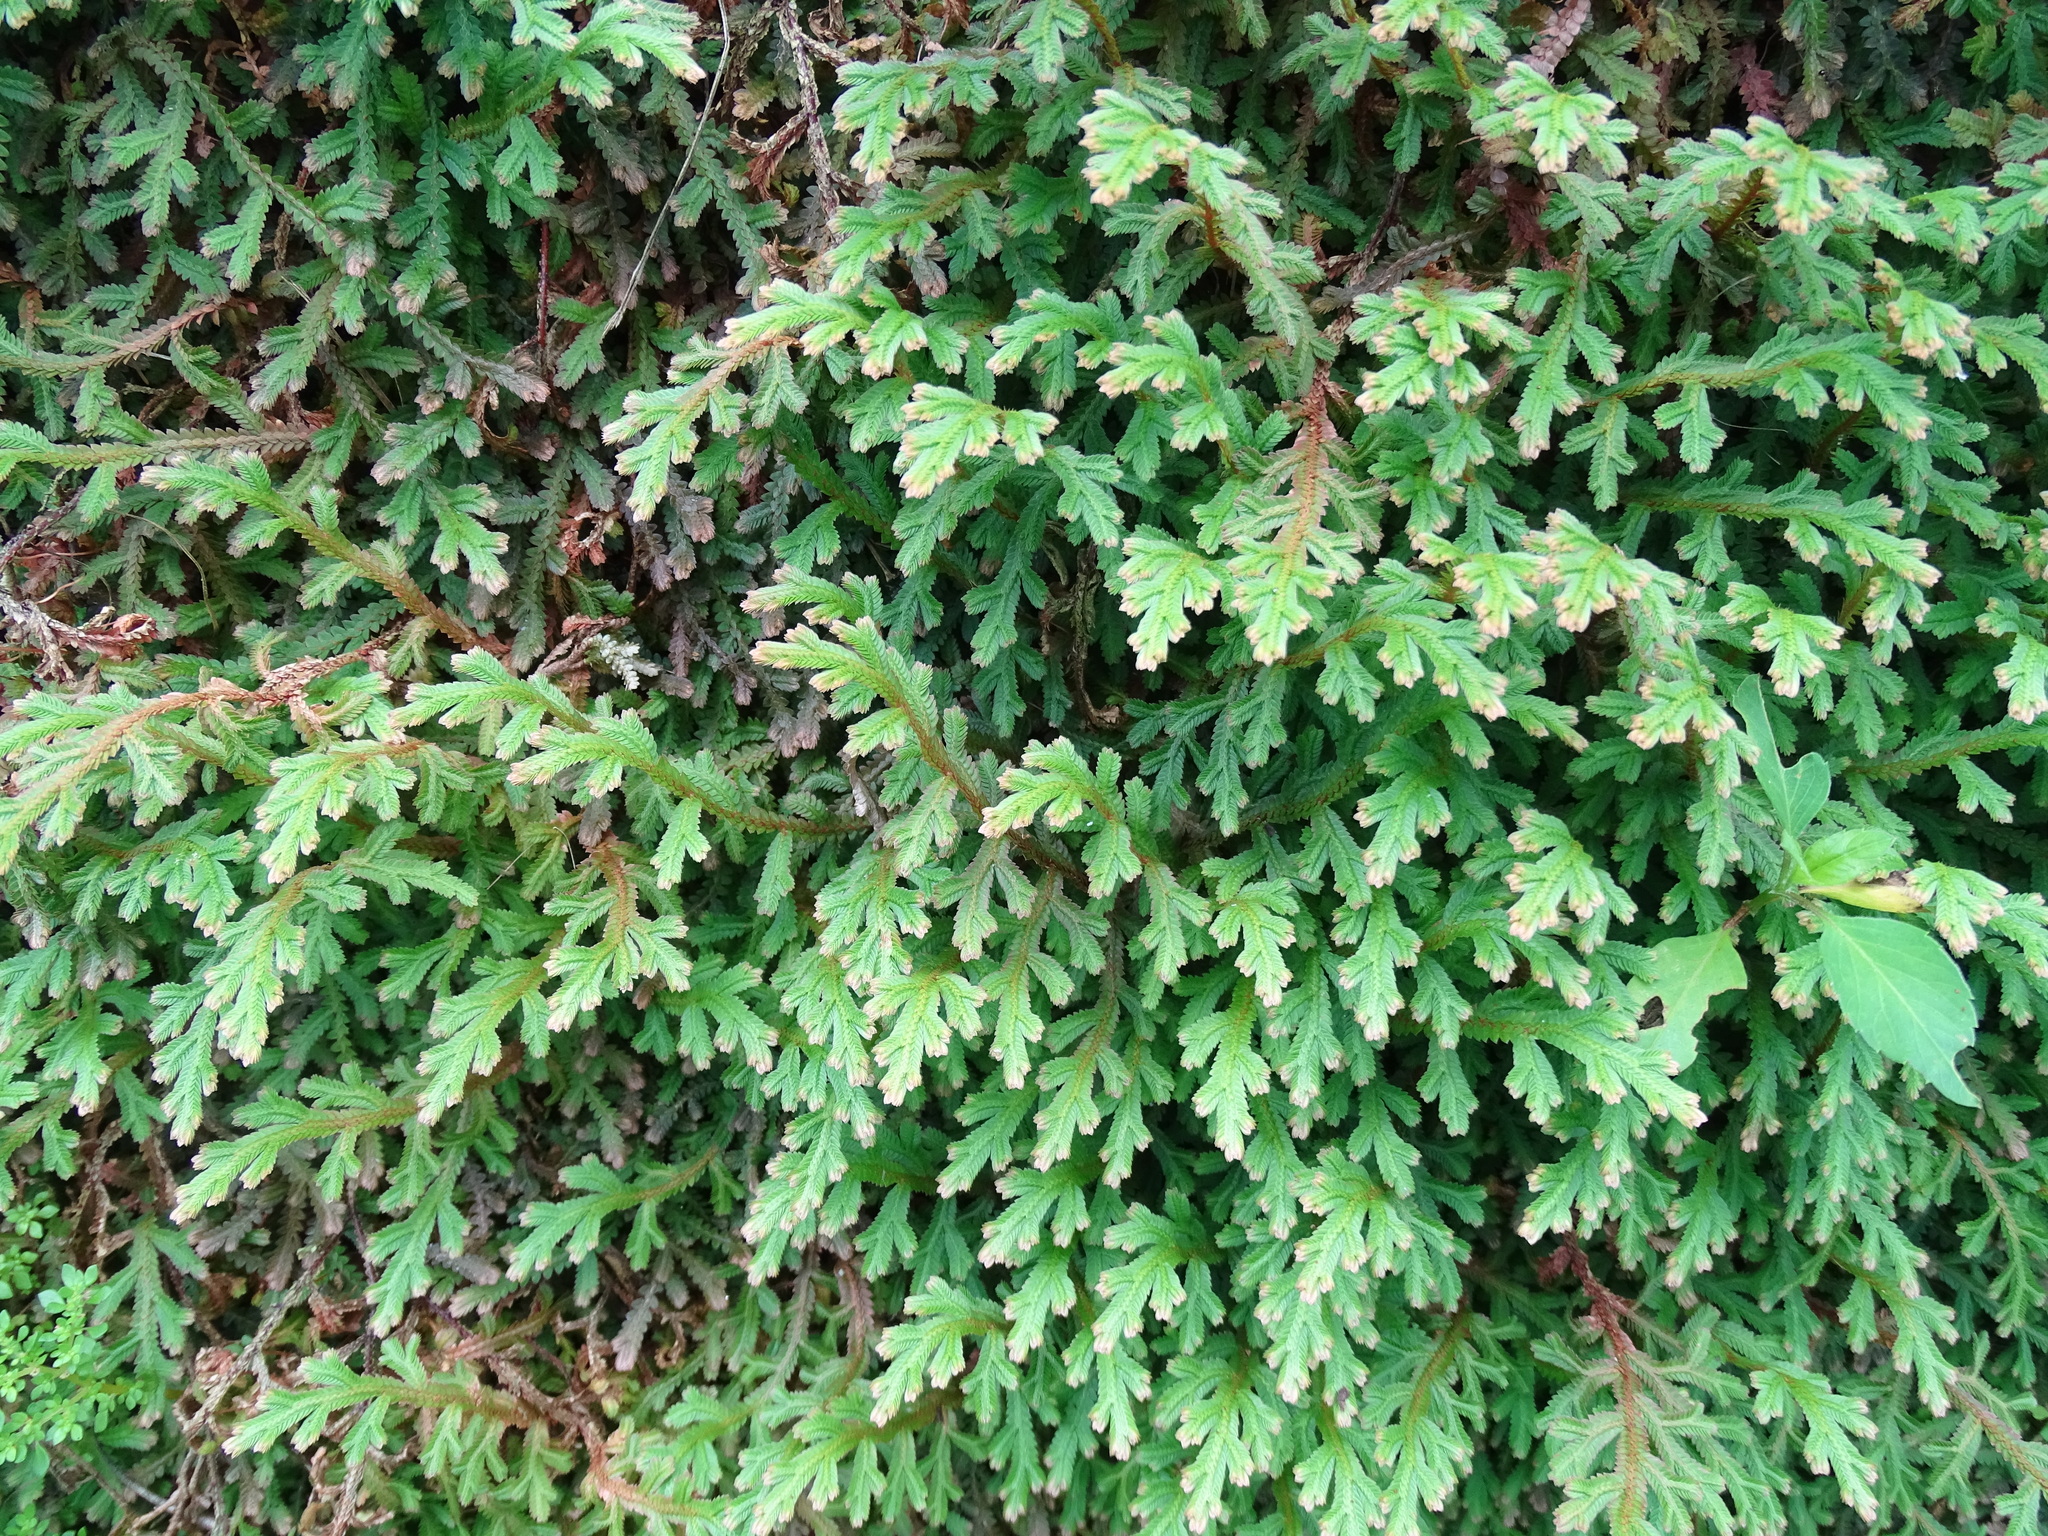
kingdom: Plantae
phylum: Tracheophyta
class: Lycopodiopsida
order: Selaginellales
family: Selaginellaceae
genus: Selaginella
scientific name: Selaginella repanda
